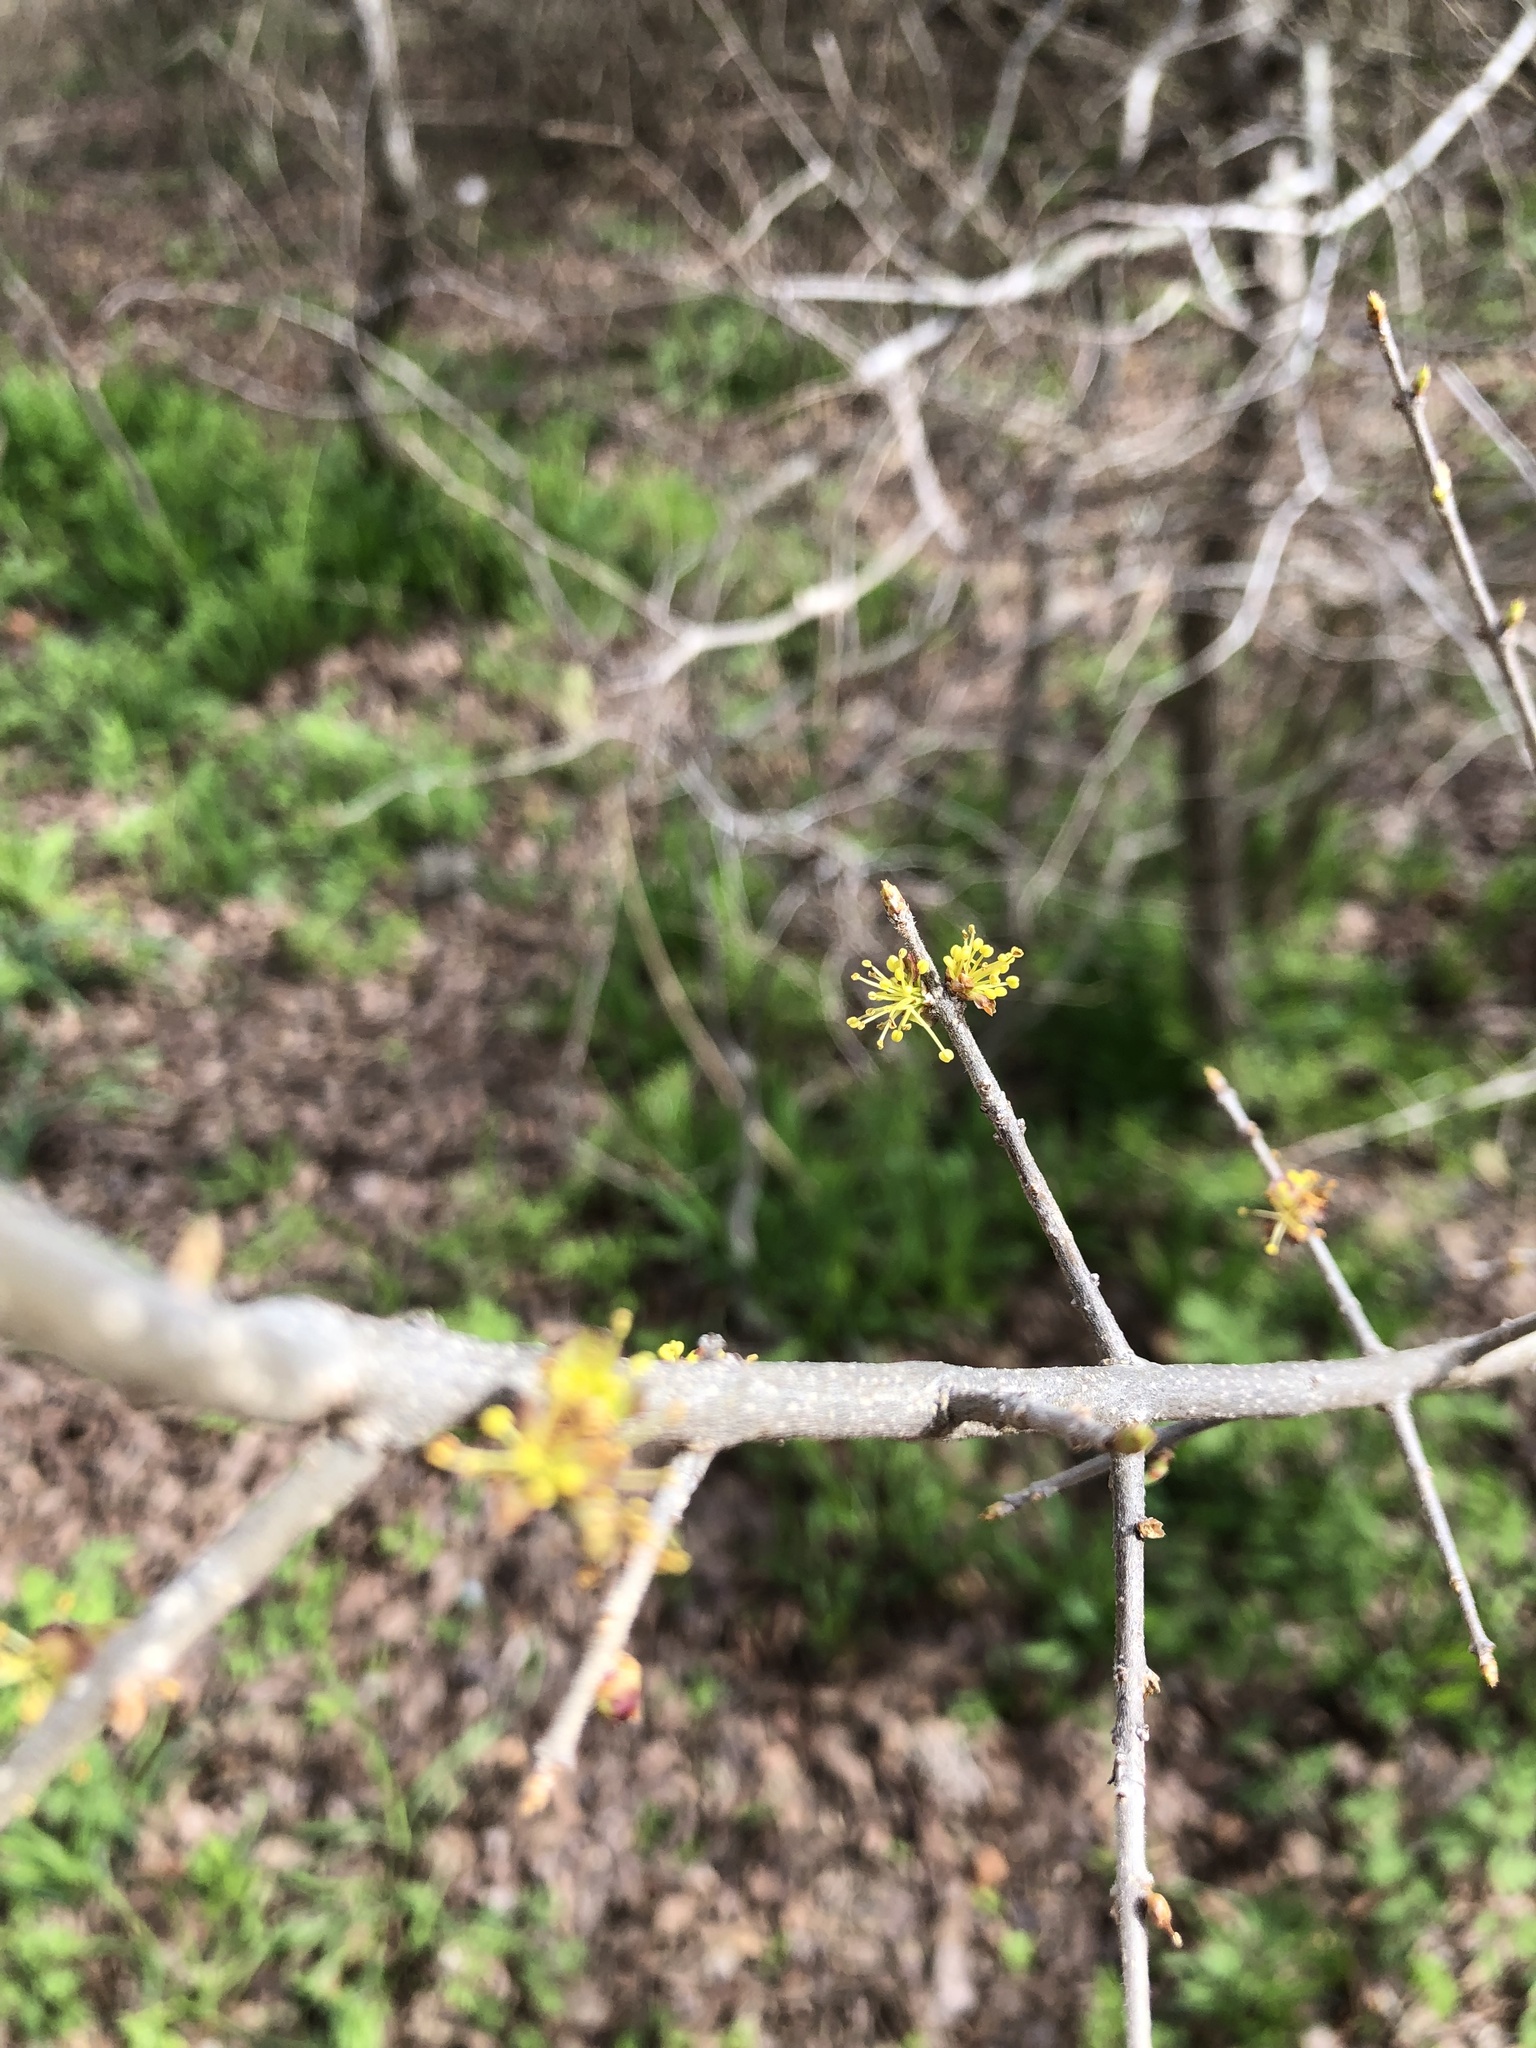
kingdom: Plantae
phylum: Tracheophyta
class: Magnoliopsida
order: Lamiales
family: Oleaceae
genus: Forestiera
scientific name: Forestiera pubescens
